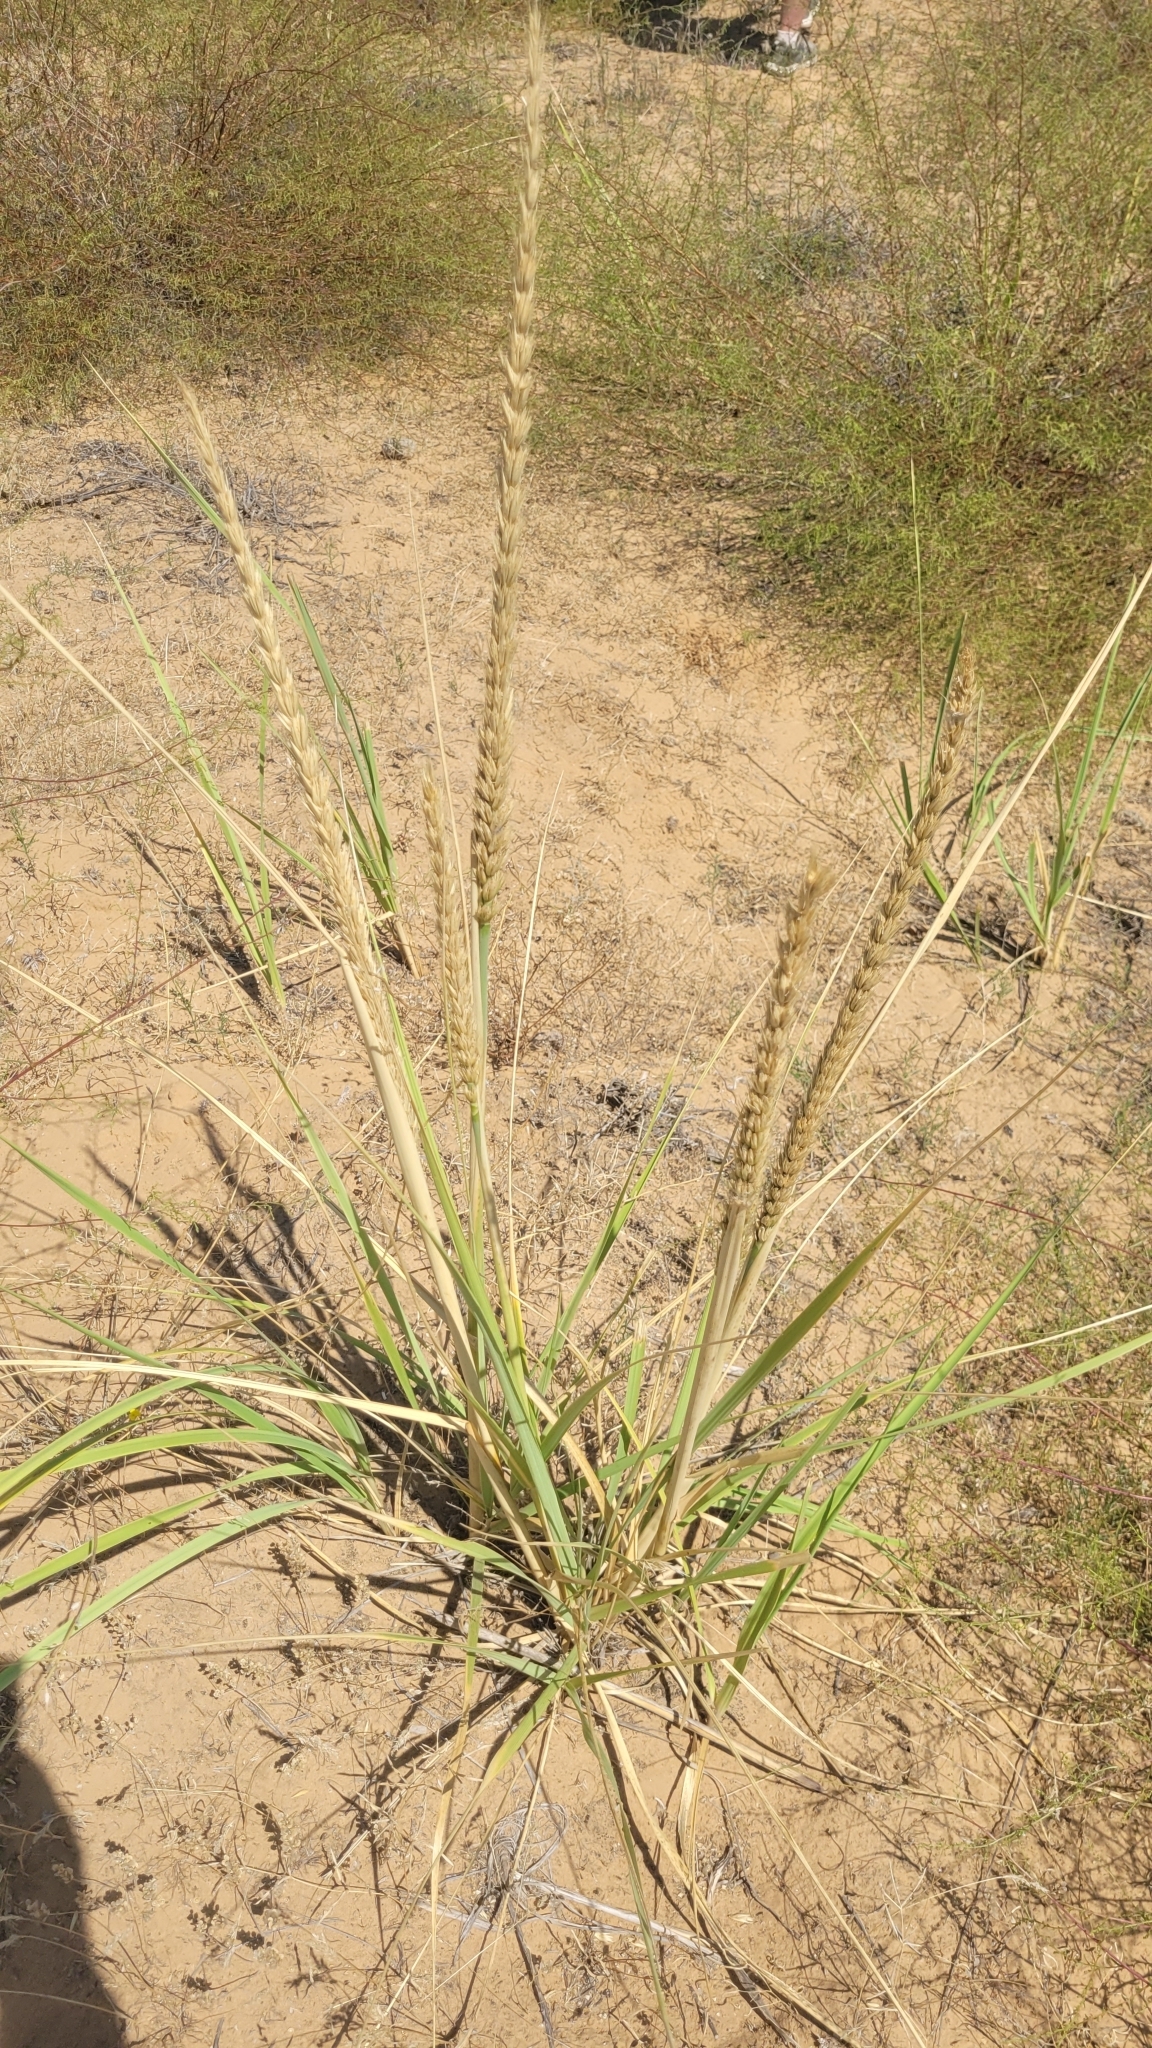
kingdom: Plantae
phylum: Tracheophyta
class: Liliopsida
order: Poales
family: Poaceae
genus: Leymus
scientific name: Leymus racemosus
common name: Mammoth wildrye
